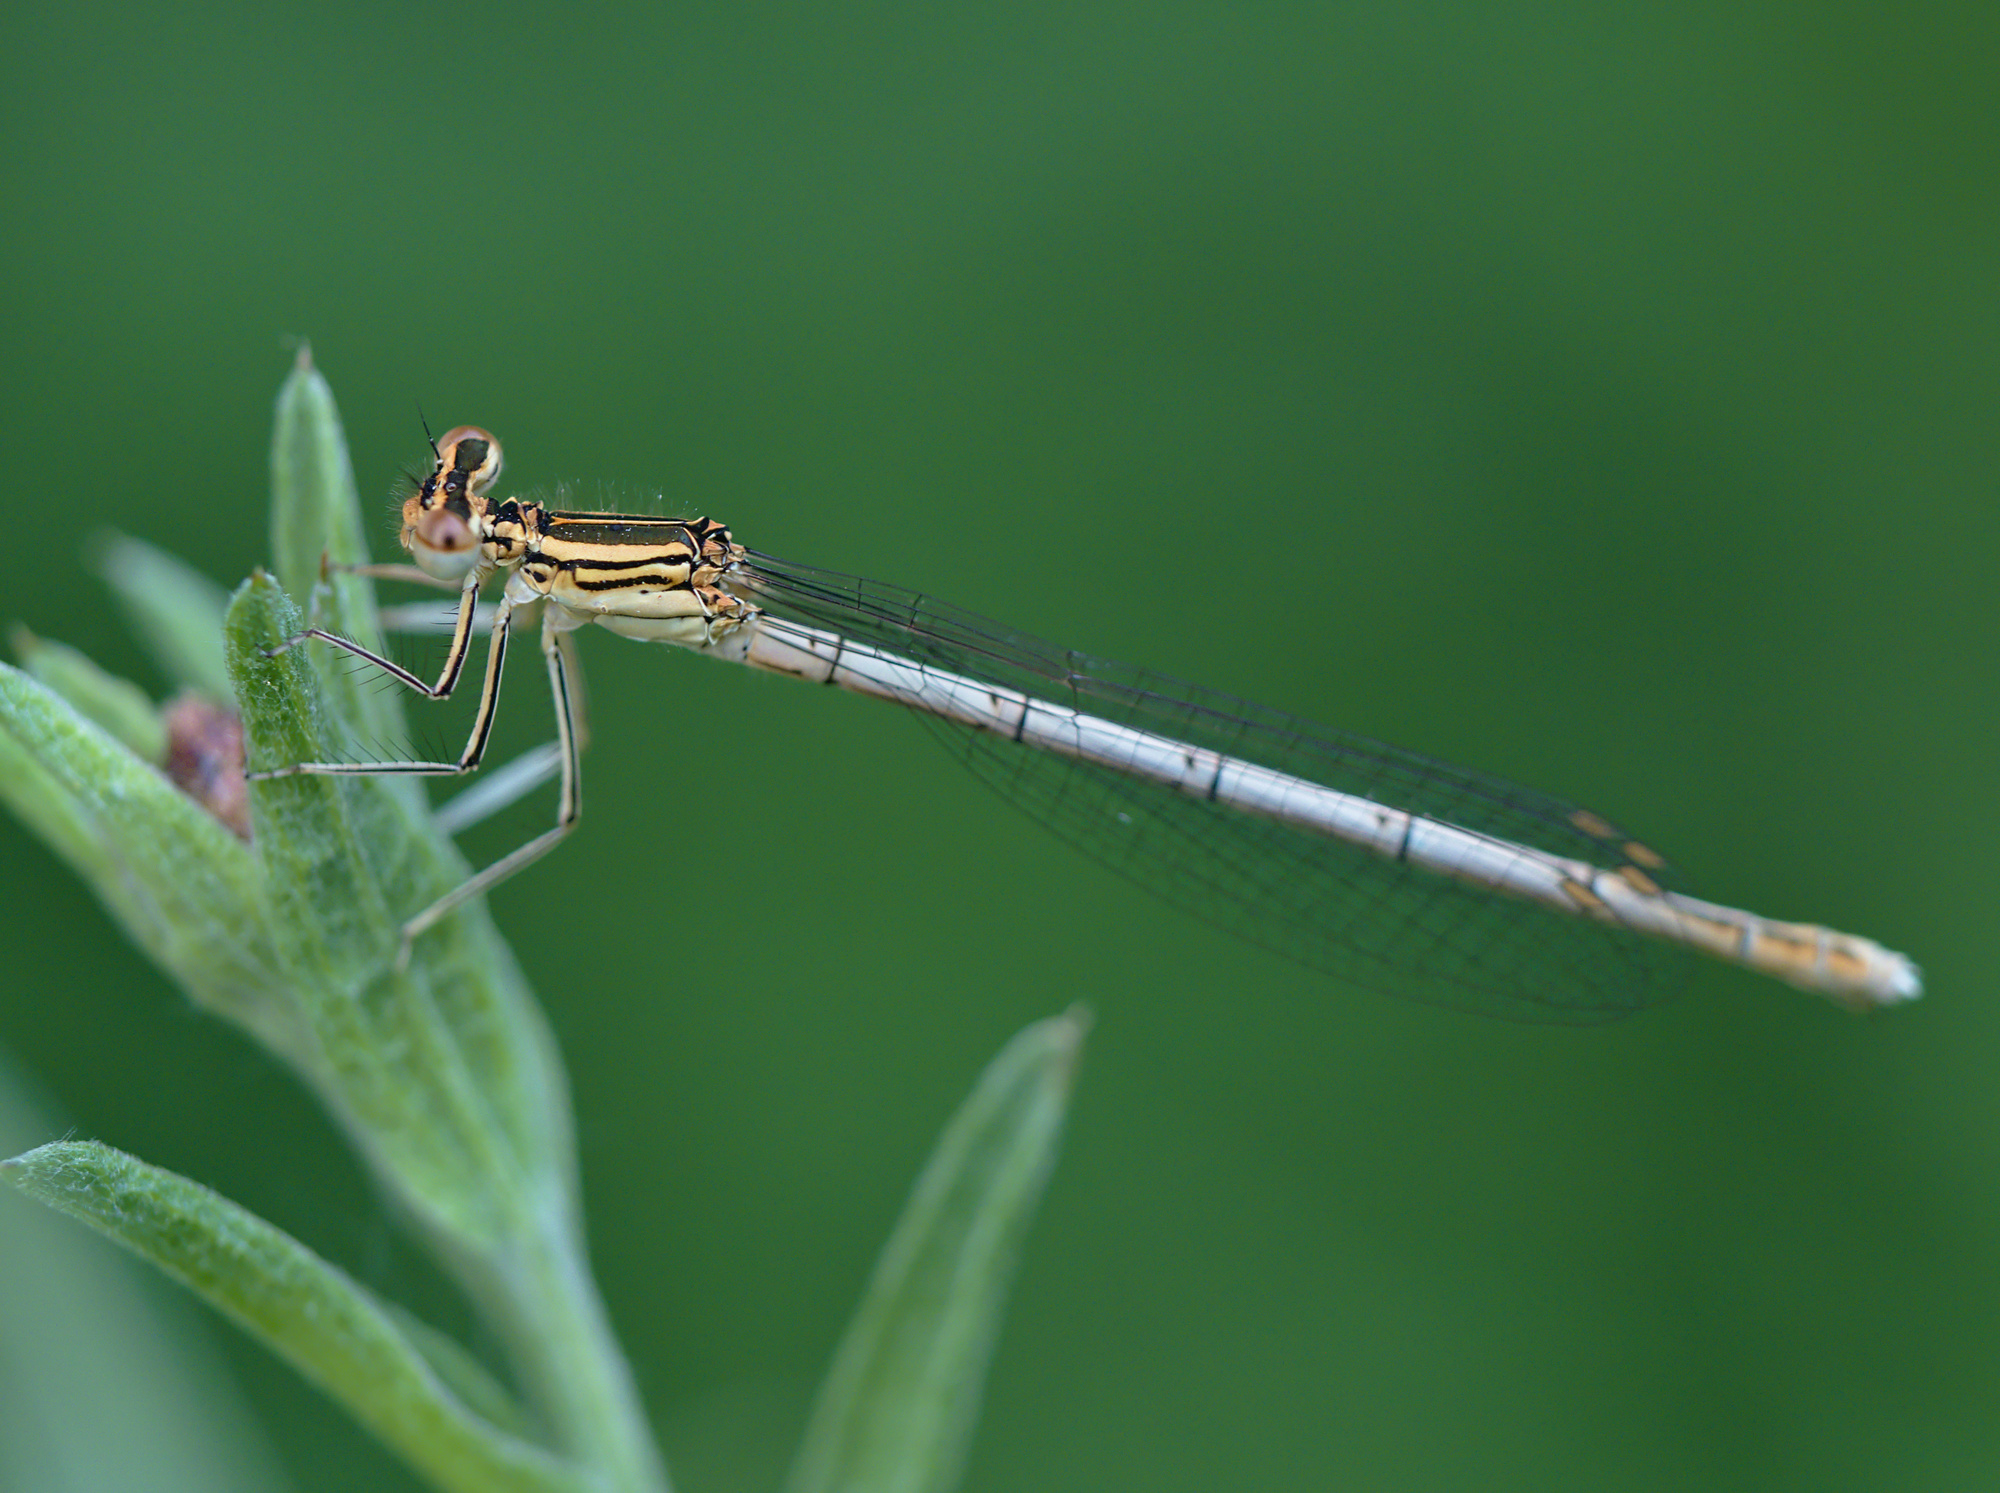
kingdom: Animalia
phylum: Arthropoda
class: Insecta
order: Odonata
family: Platycnemididae
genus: Platycnemis
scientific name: Platycnemis pennipes
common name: White-legged damselfly
